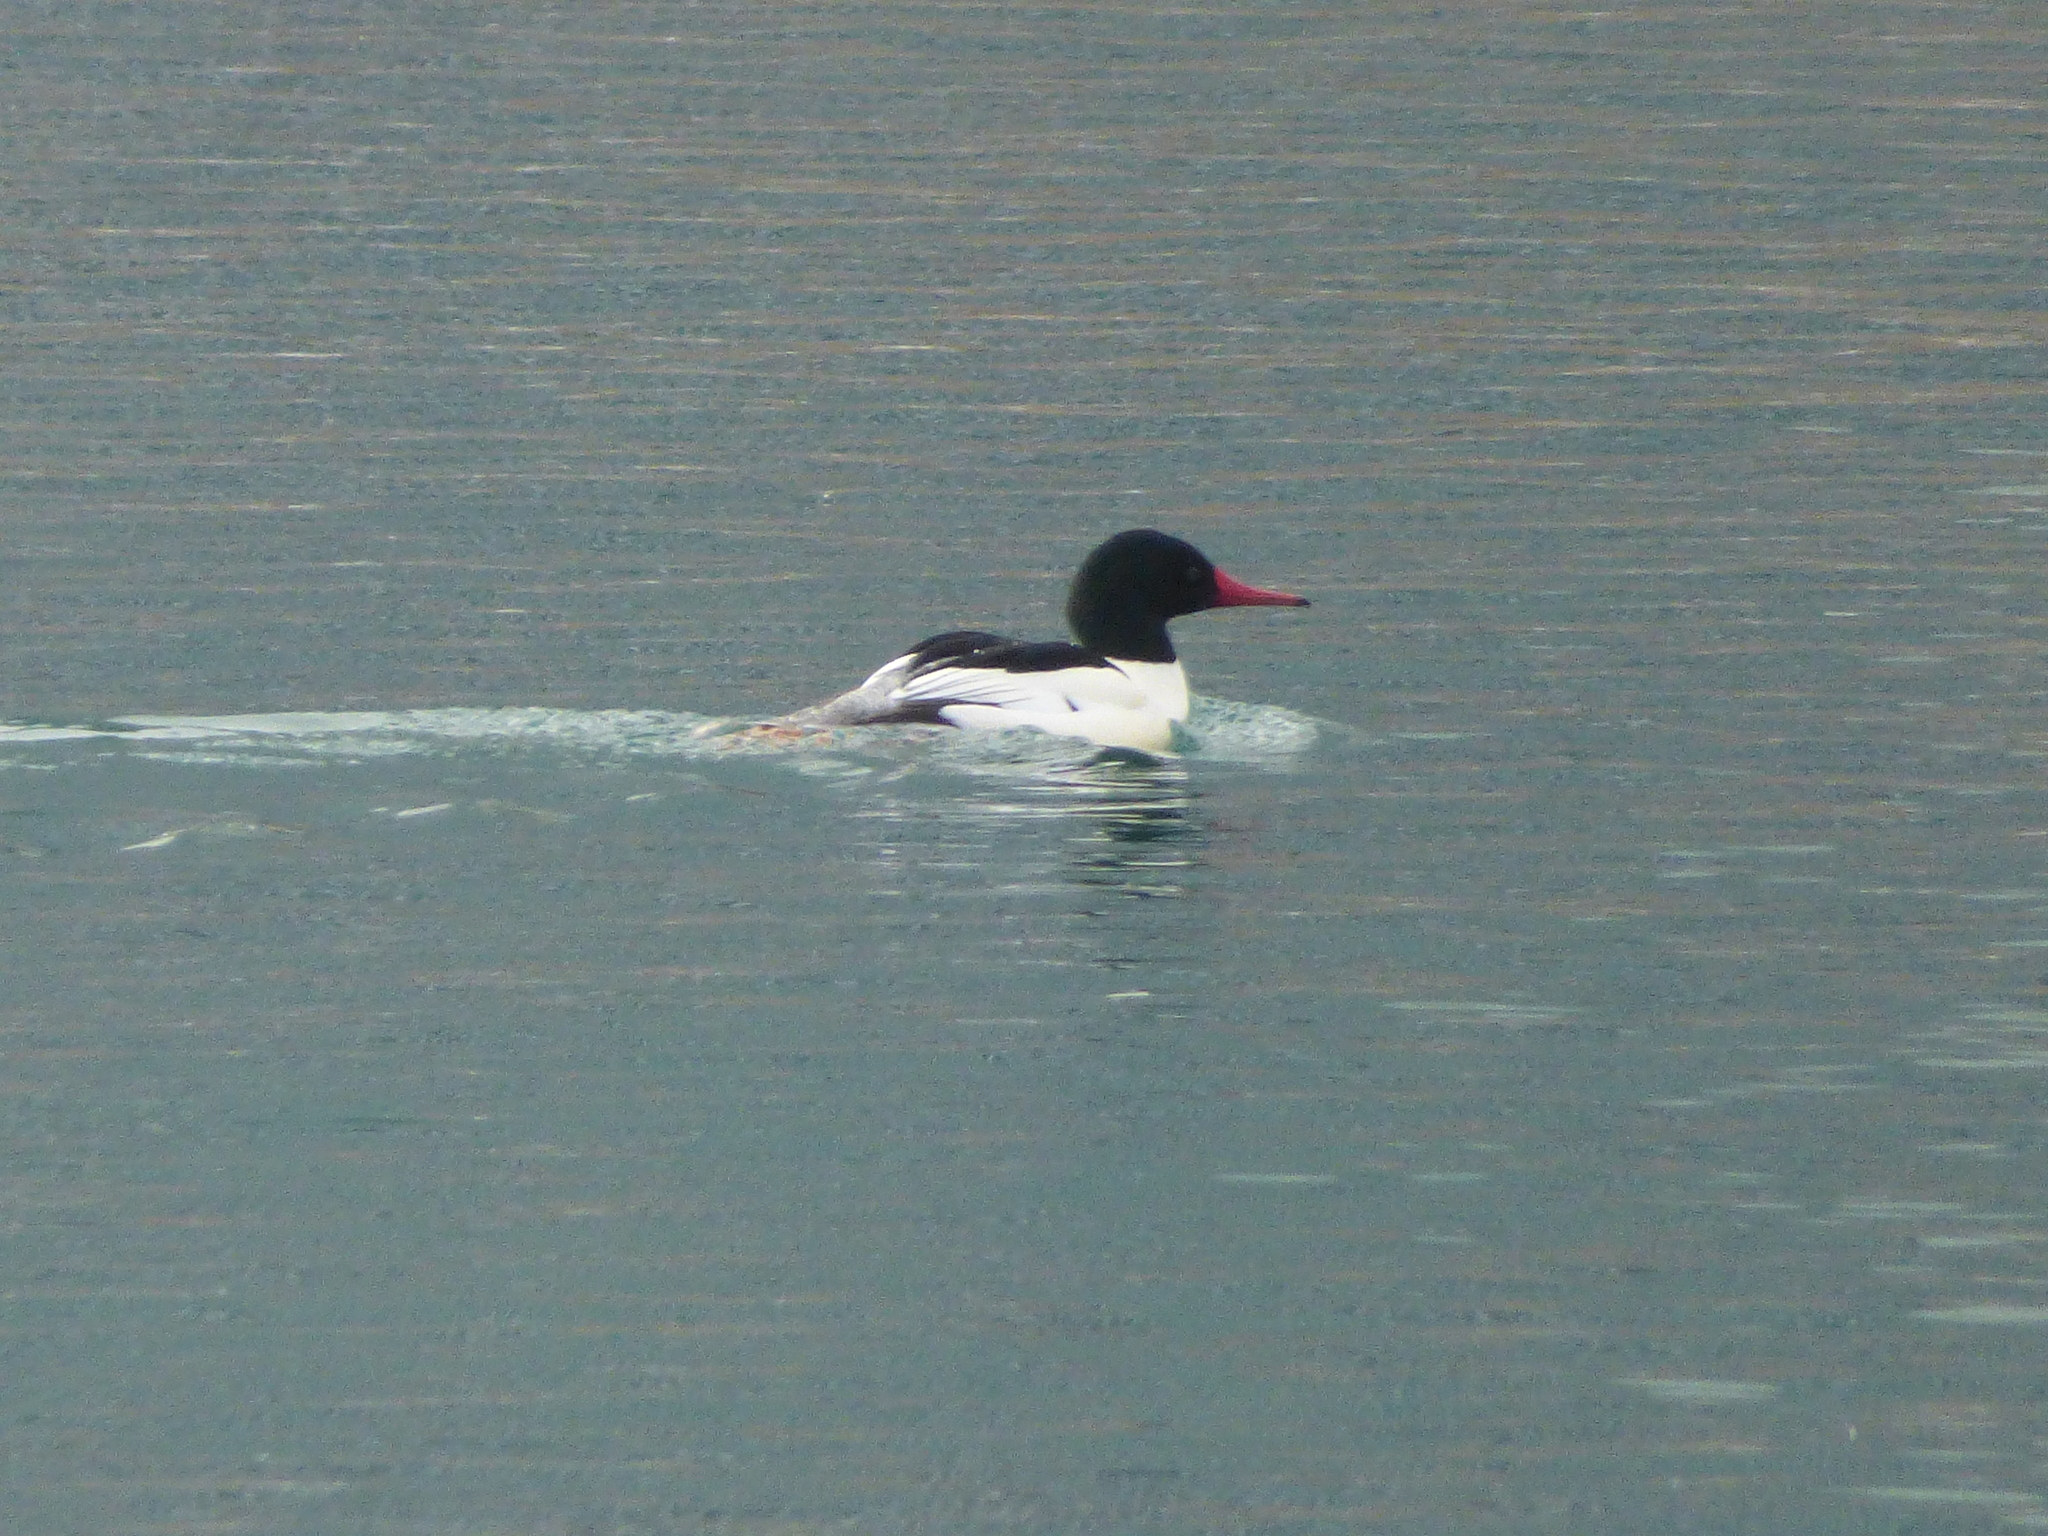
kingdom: Animalia
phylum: Chordata
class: Aves
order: Anseriformes
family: Anatidae
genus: Mergus
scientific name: Mergus merganser
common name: Common merganser
